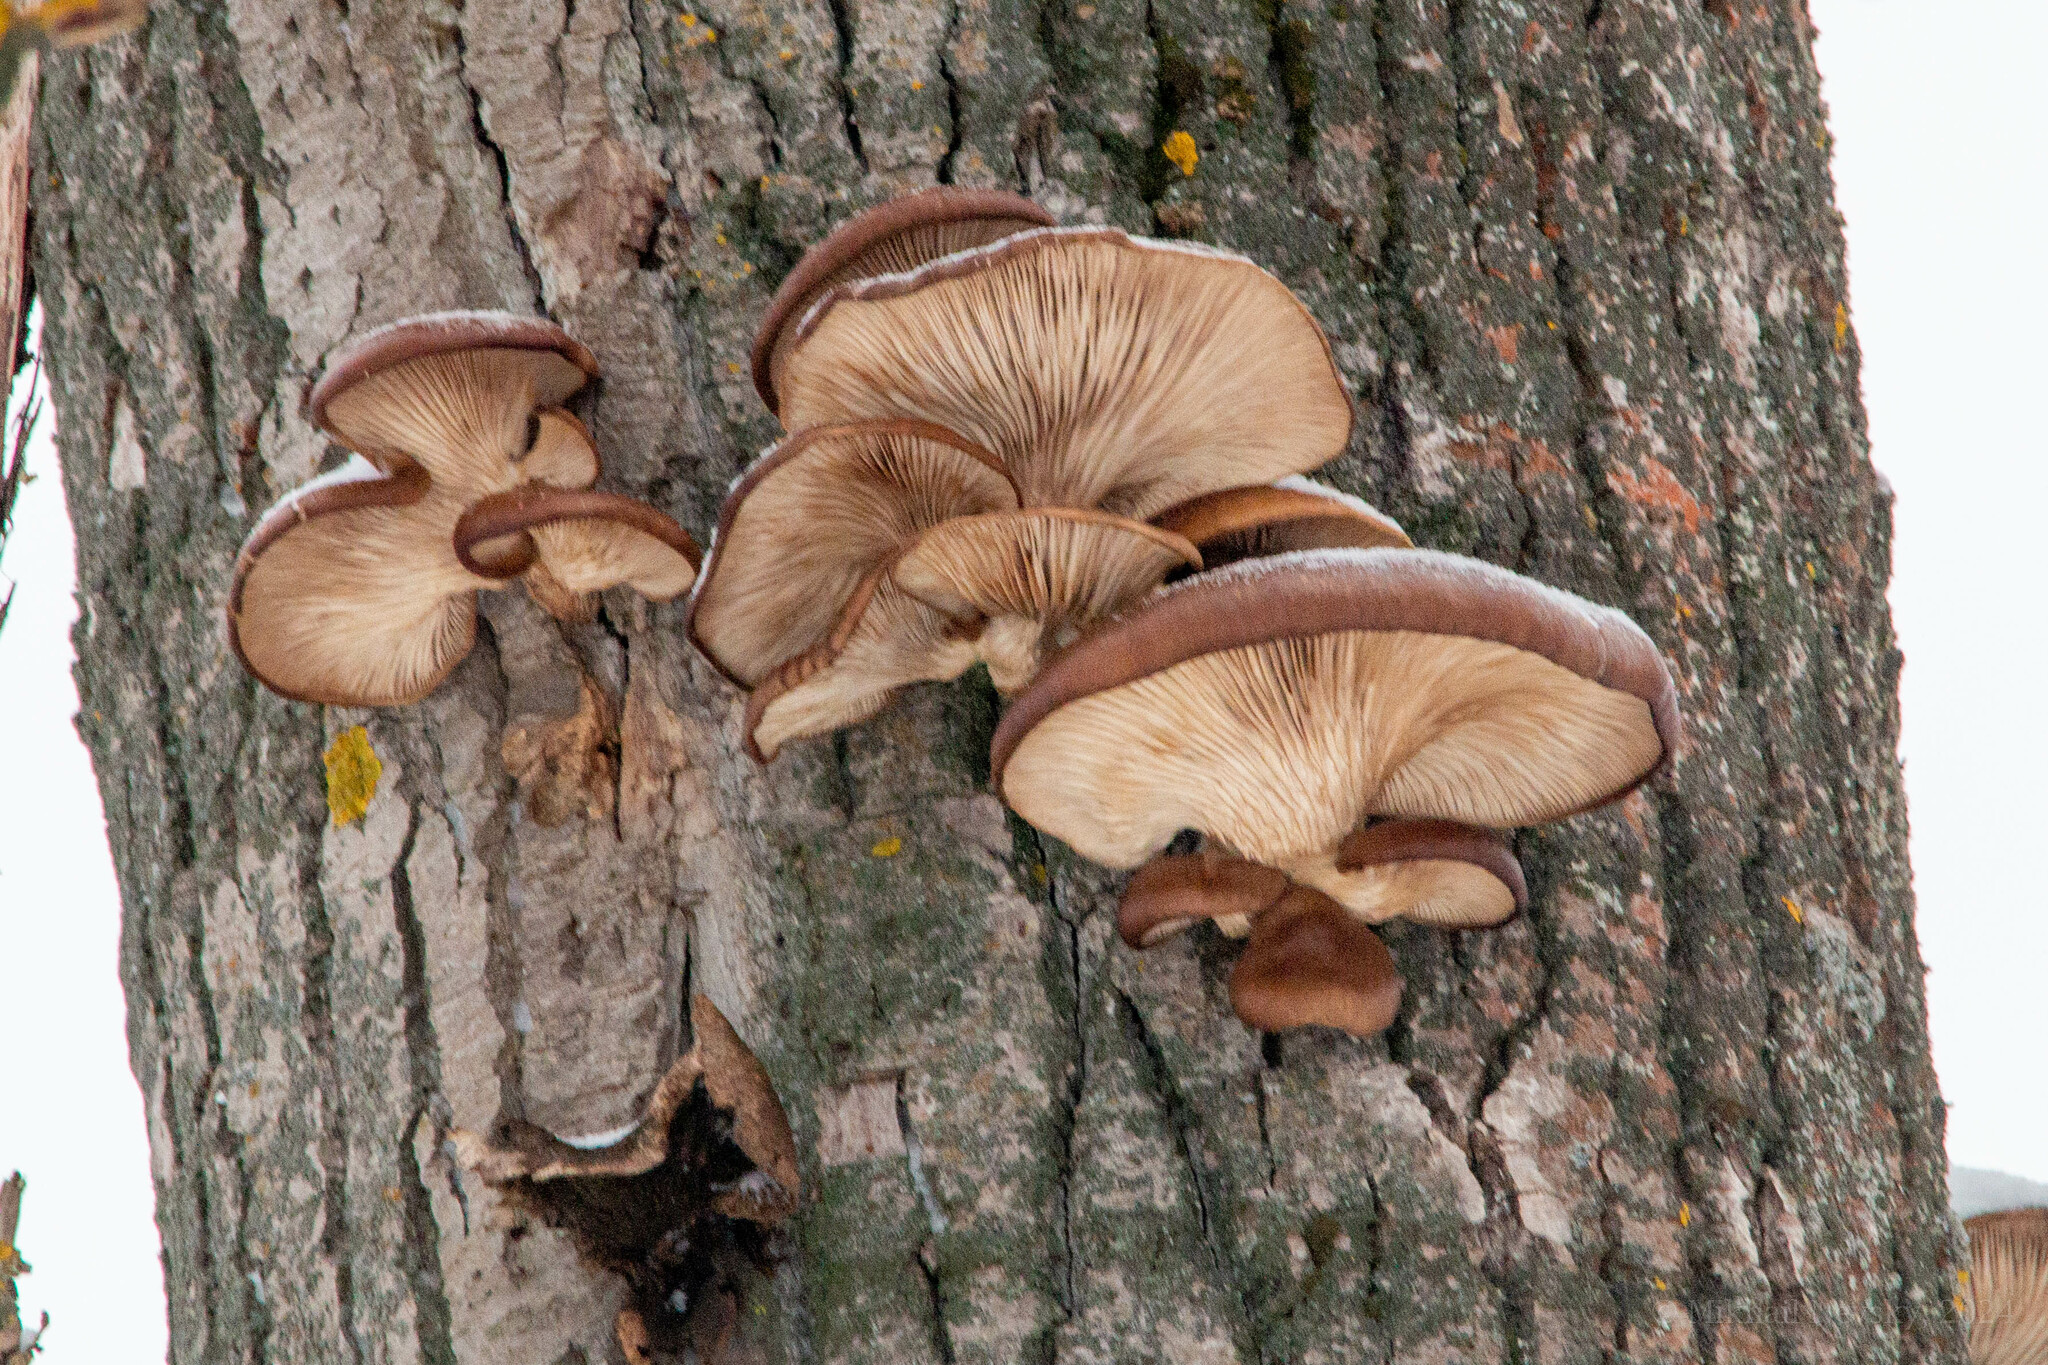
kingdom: Fungi
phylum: Basidiomycota
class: Agaricomycetes
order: Agaricales
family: Pleurotaceae
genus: Pleurotus
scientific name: Pleurotus ostreatus
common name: Oyster mushroom
